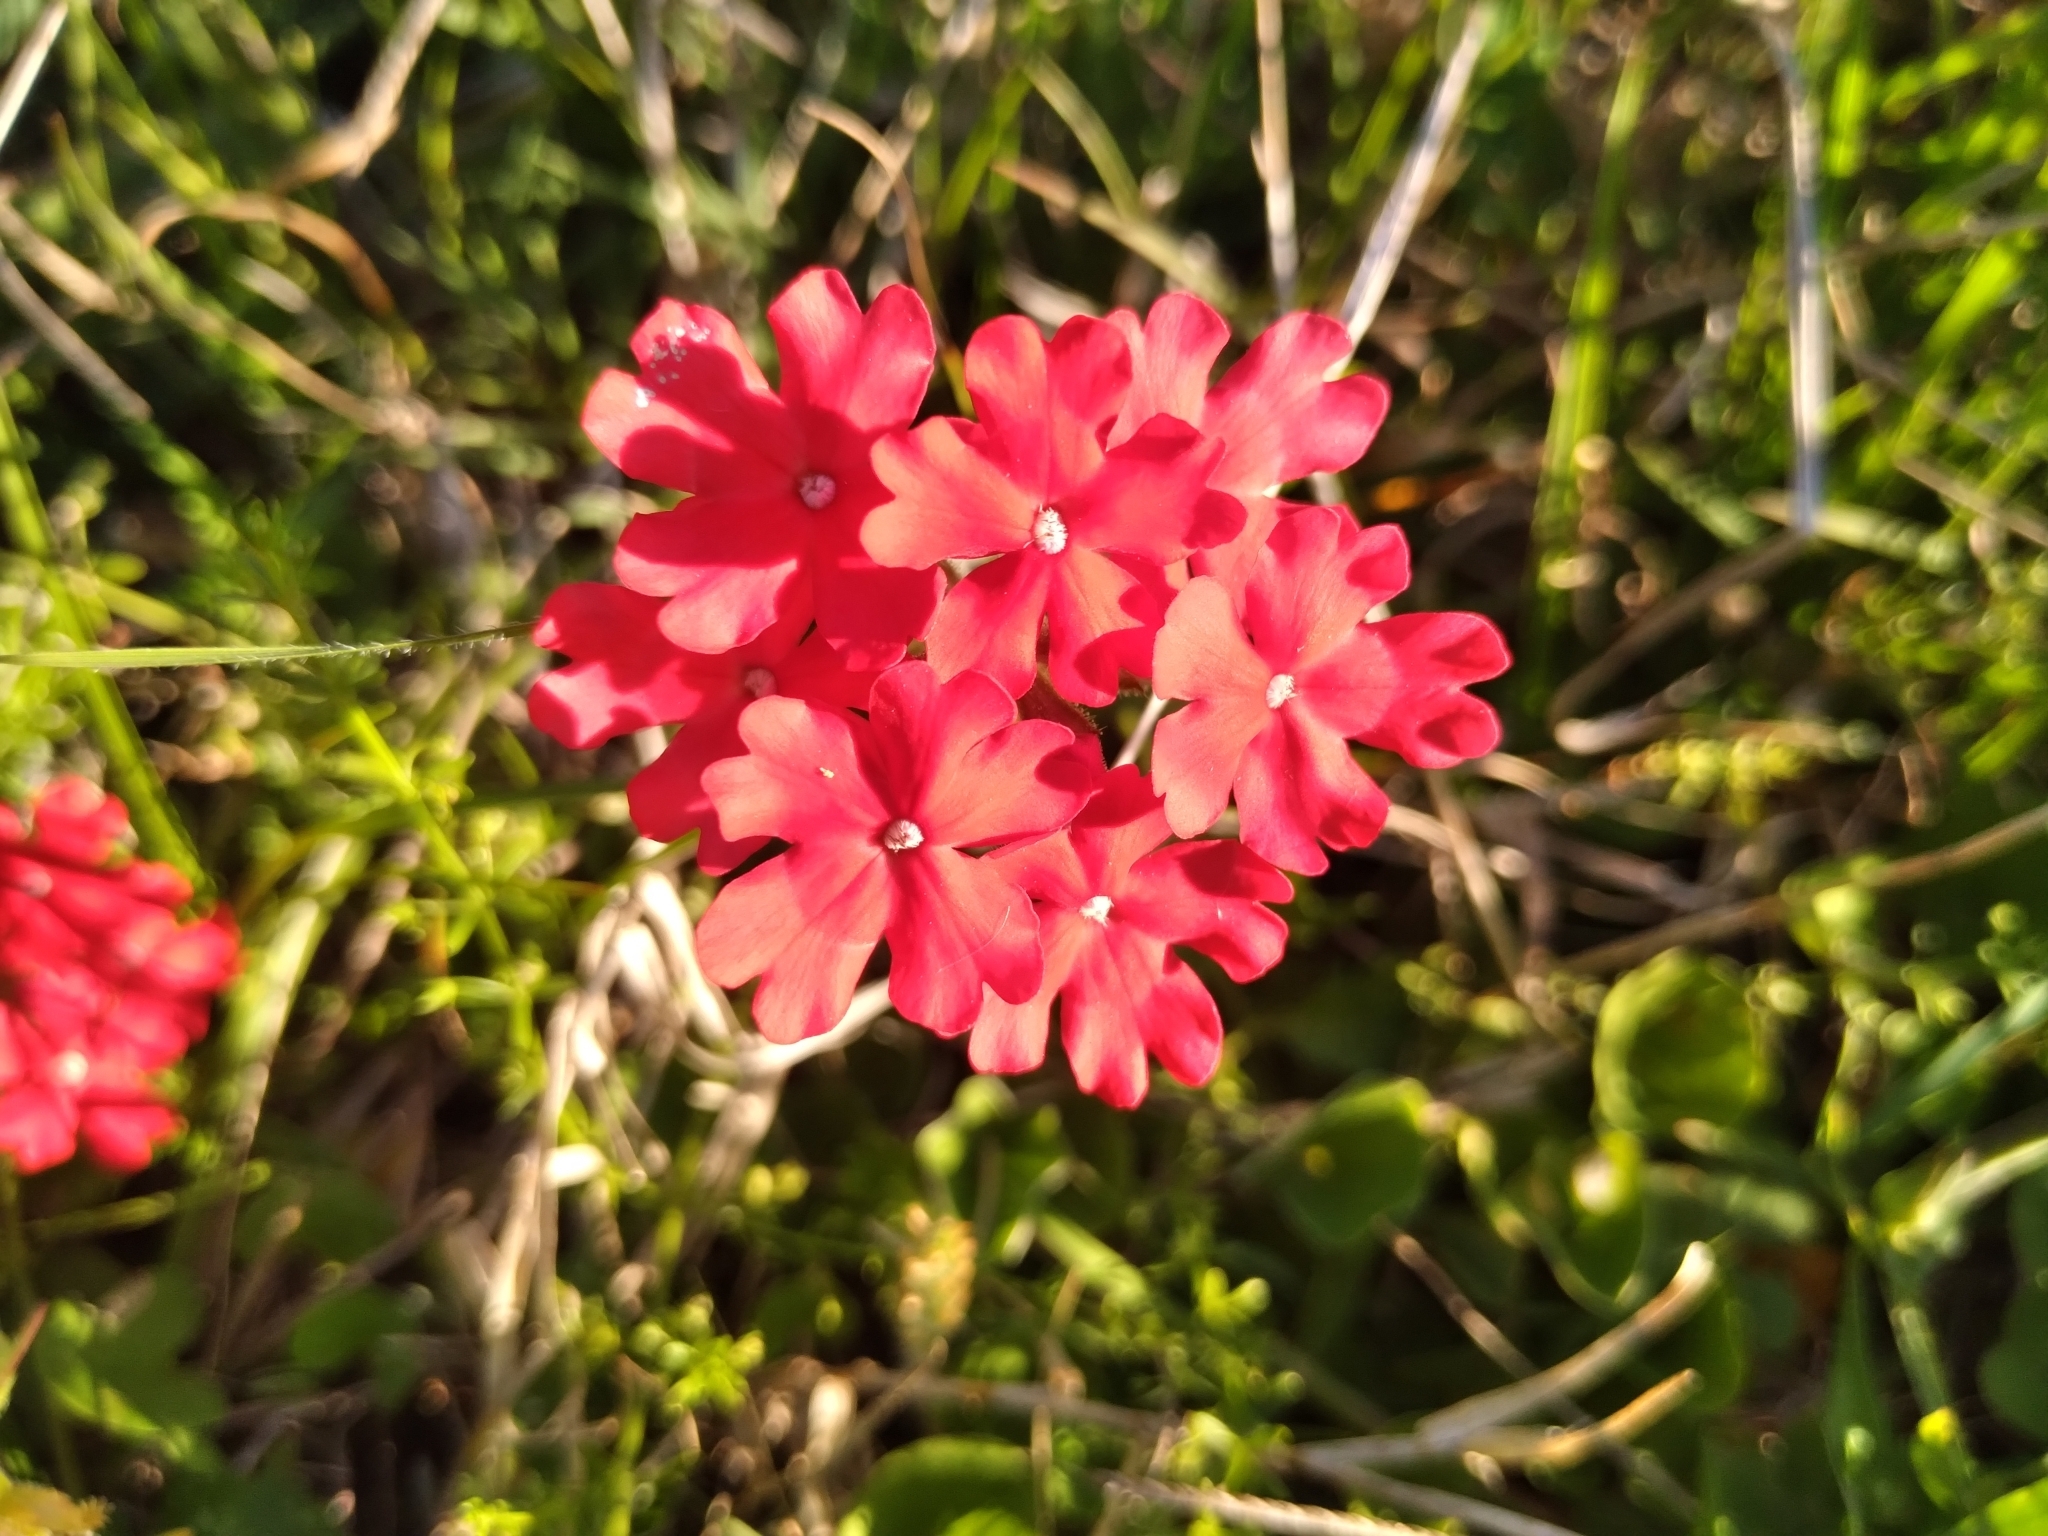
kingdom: Plantae
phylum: Tracheophyta
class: Magnoliopsida
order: Lamiales
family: Verbenaceae
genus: Verbena
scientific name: Verbena peruviana
